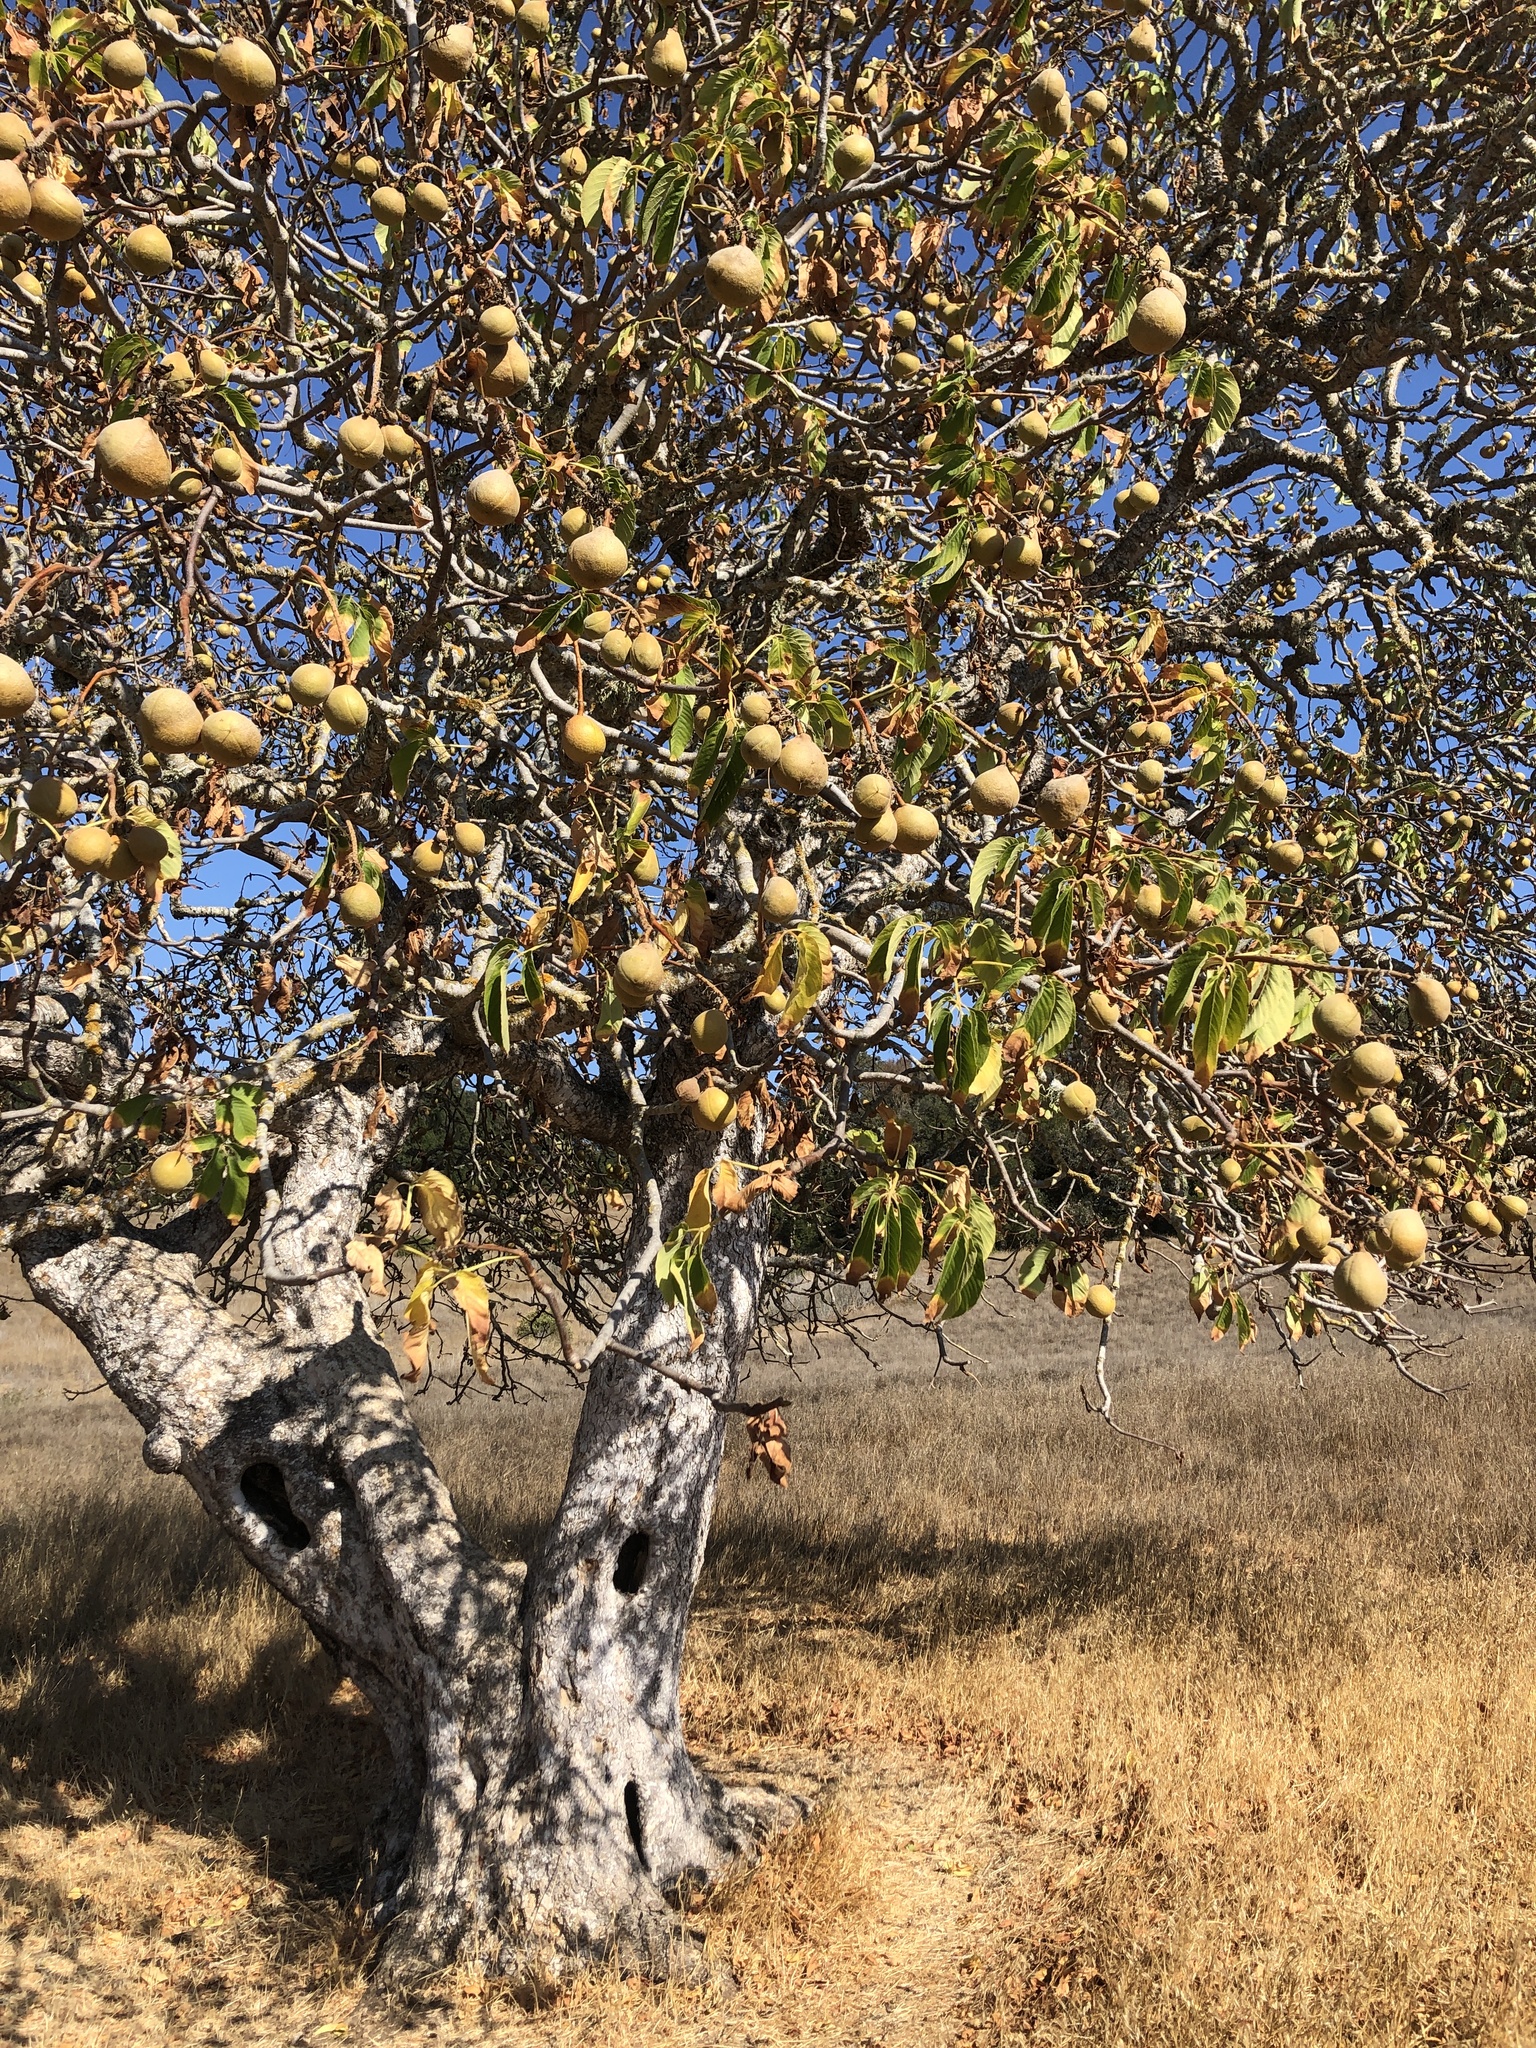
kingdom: Plantae
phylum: Tracheophyta
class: Magnoliopsida
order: Sapindales
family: Sapindaceae
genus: Aesculus
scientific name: Aesculus californica
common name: California buckeye
